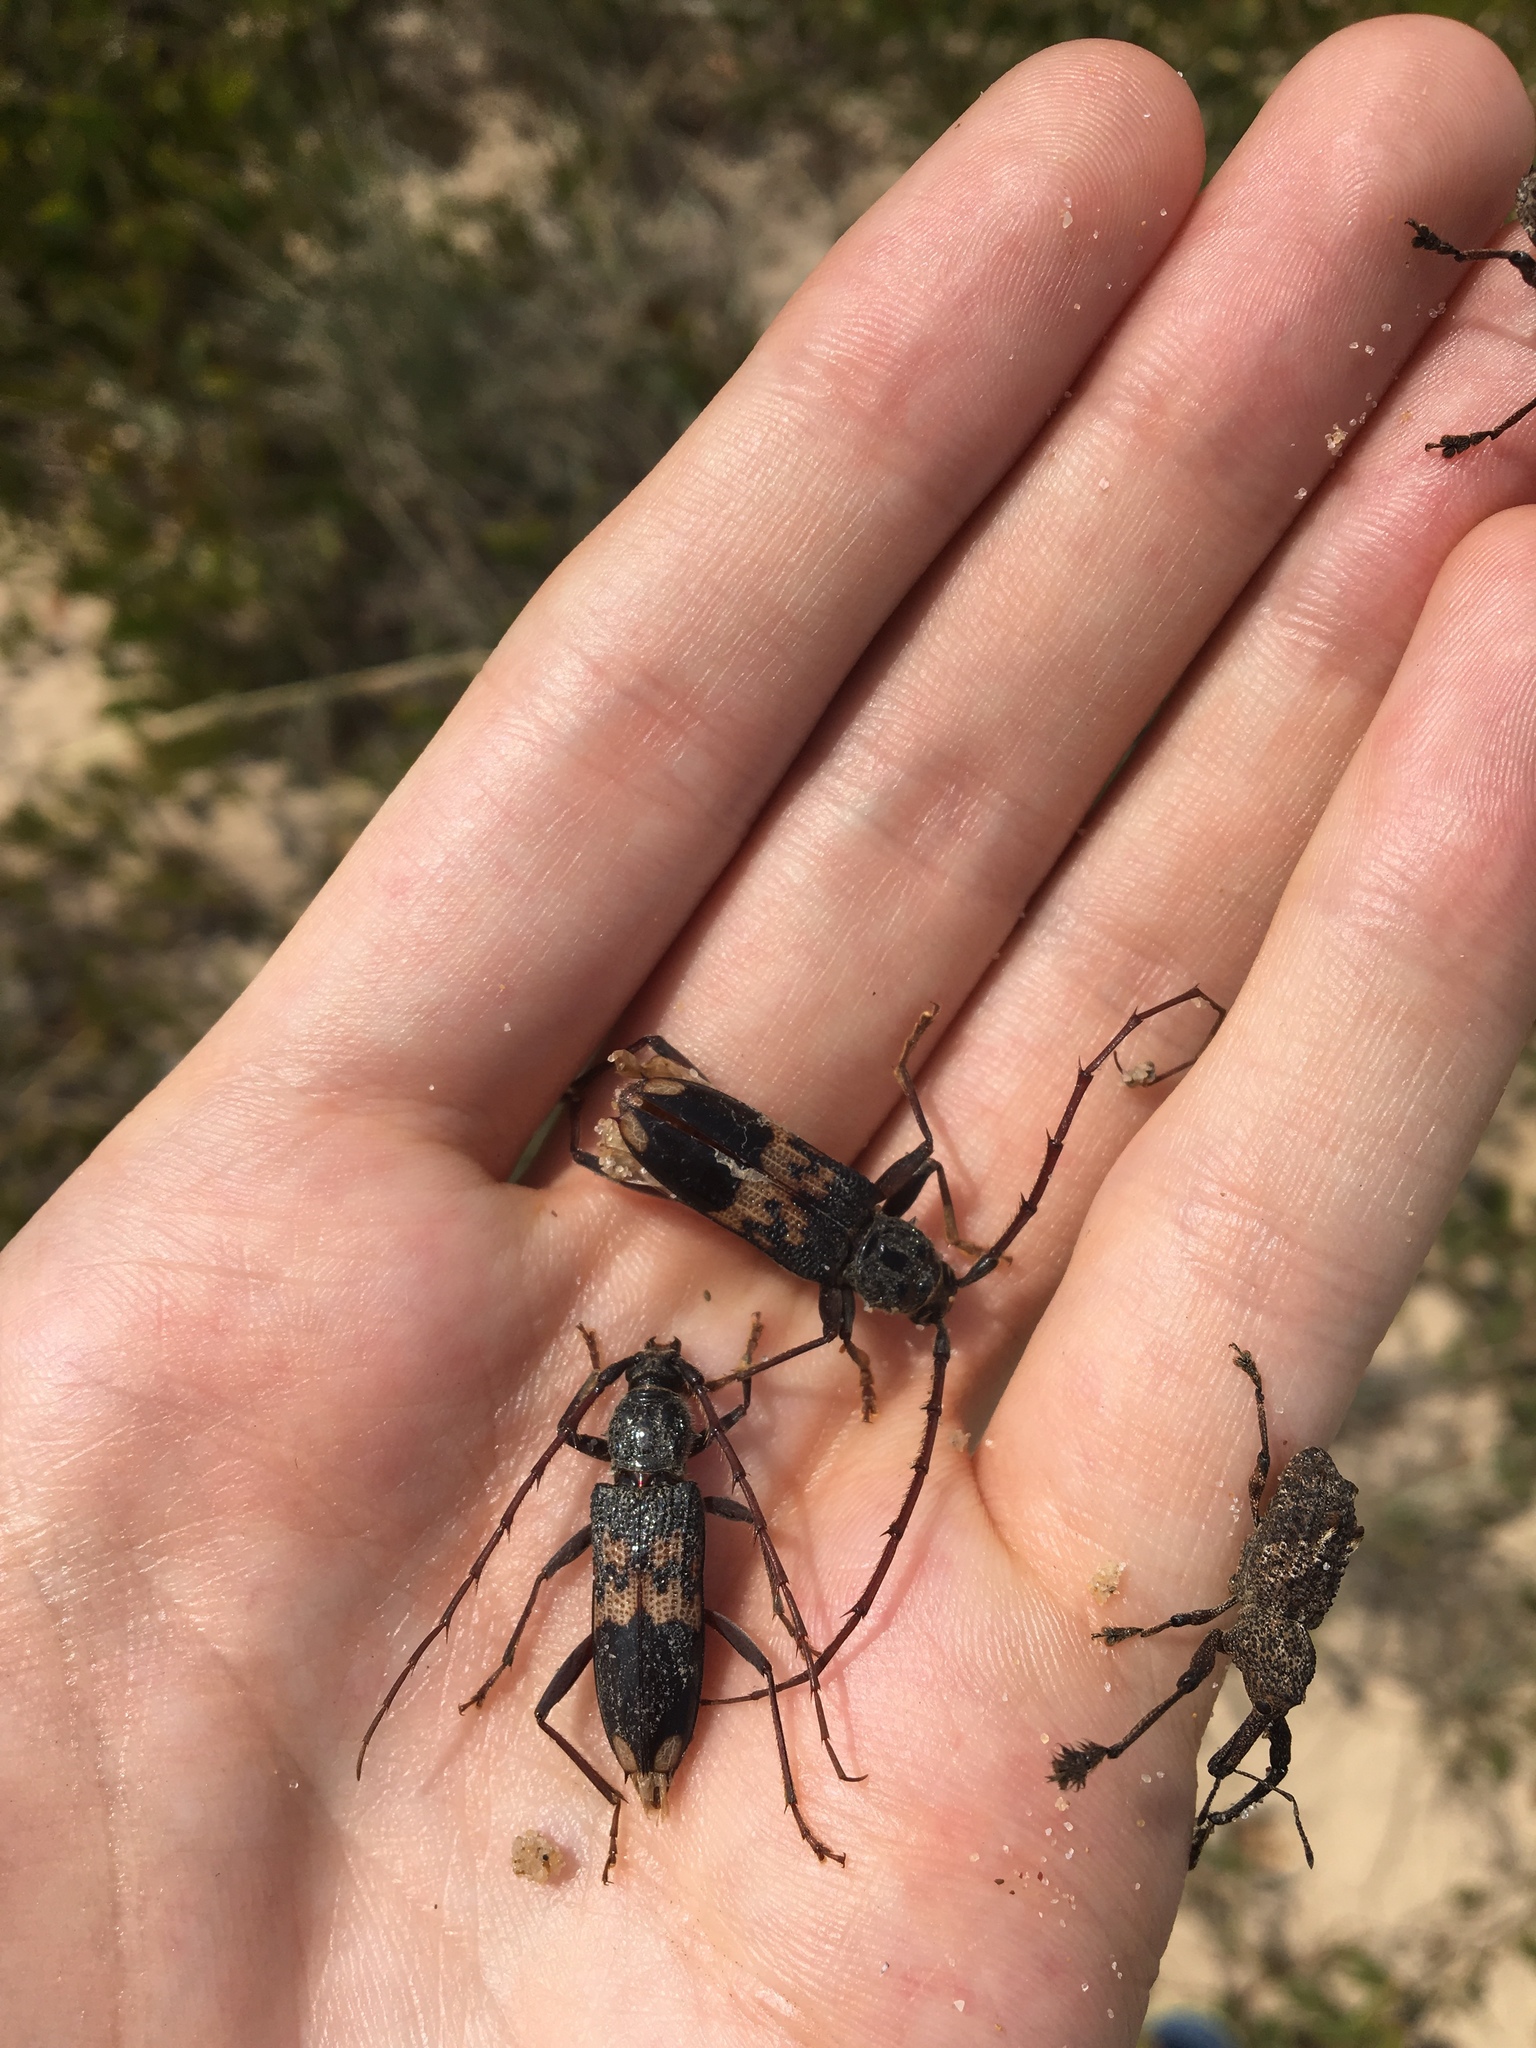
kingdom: Animalia
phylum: Arthropoda
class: Insecta
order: Coleoptera
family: Cerambycidae
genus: Phoracantha
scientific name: Phoracantha semipunctata
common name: Eucalyptus longhorn borer
